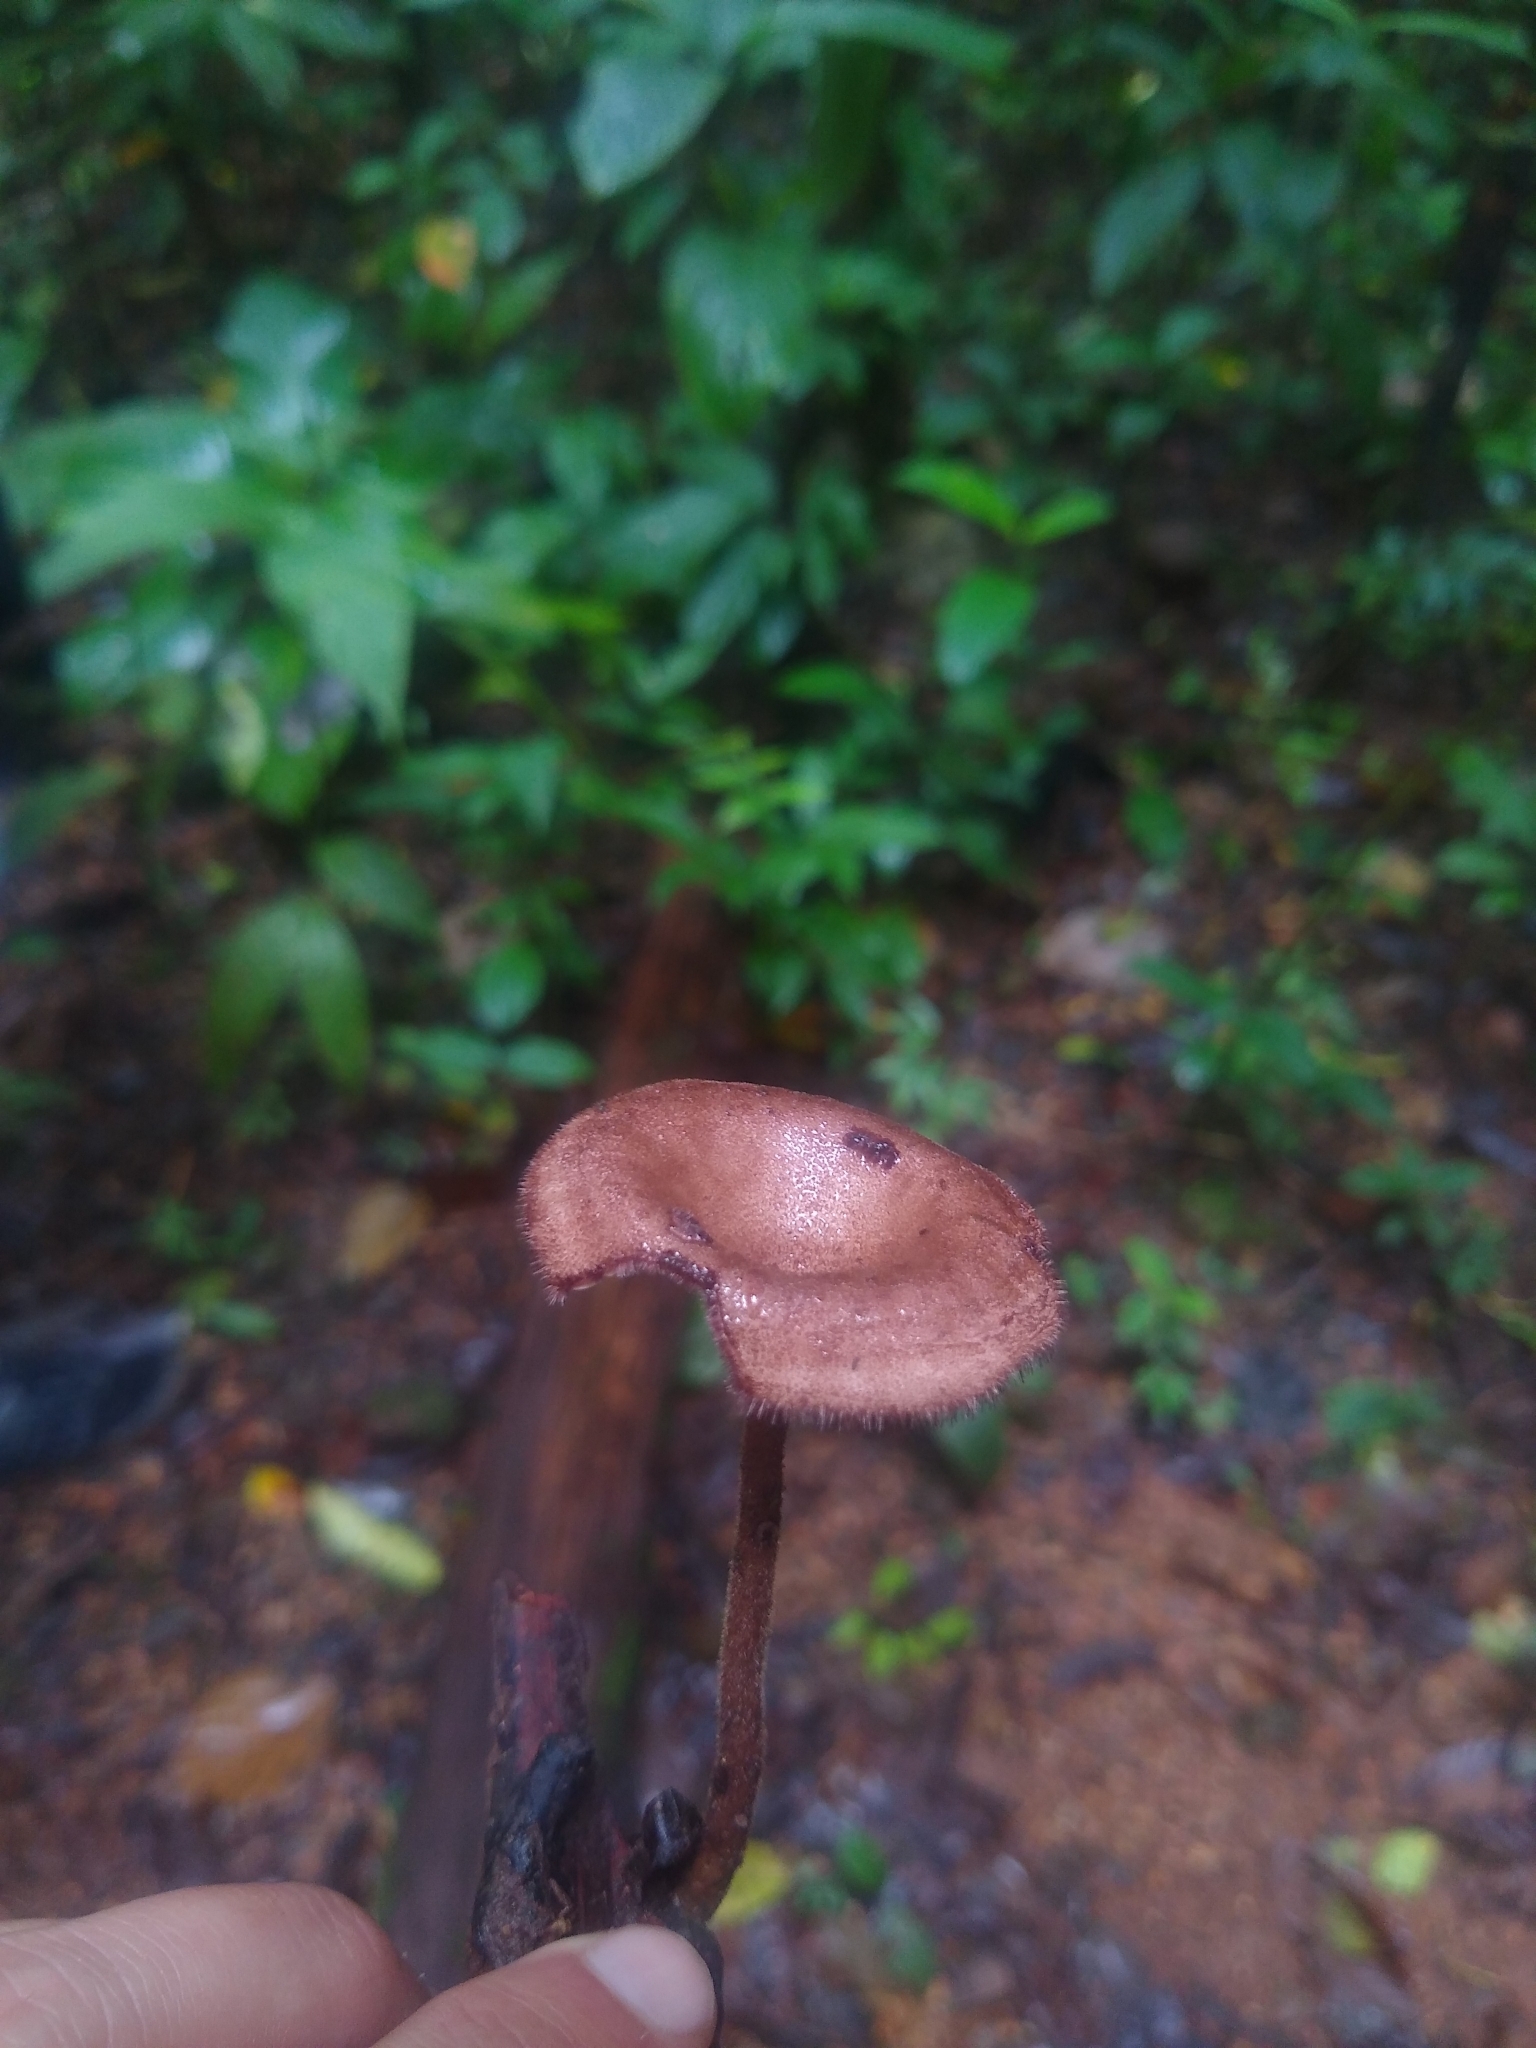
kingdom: Fungi
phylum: Basidiomycota
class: Agaricomycetes
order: Polyporales
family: Polyporaceae
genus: Lentinus
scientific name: Lentinus velutinus
